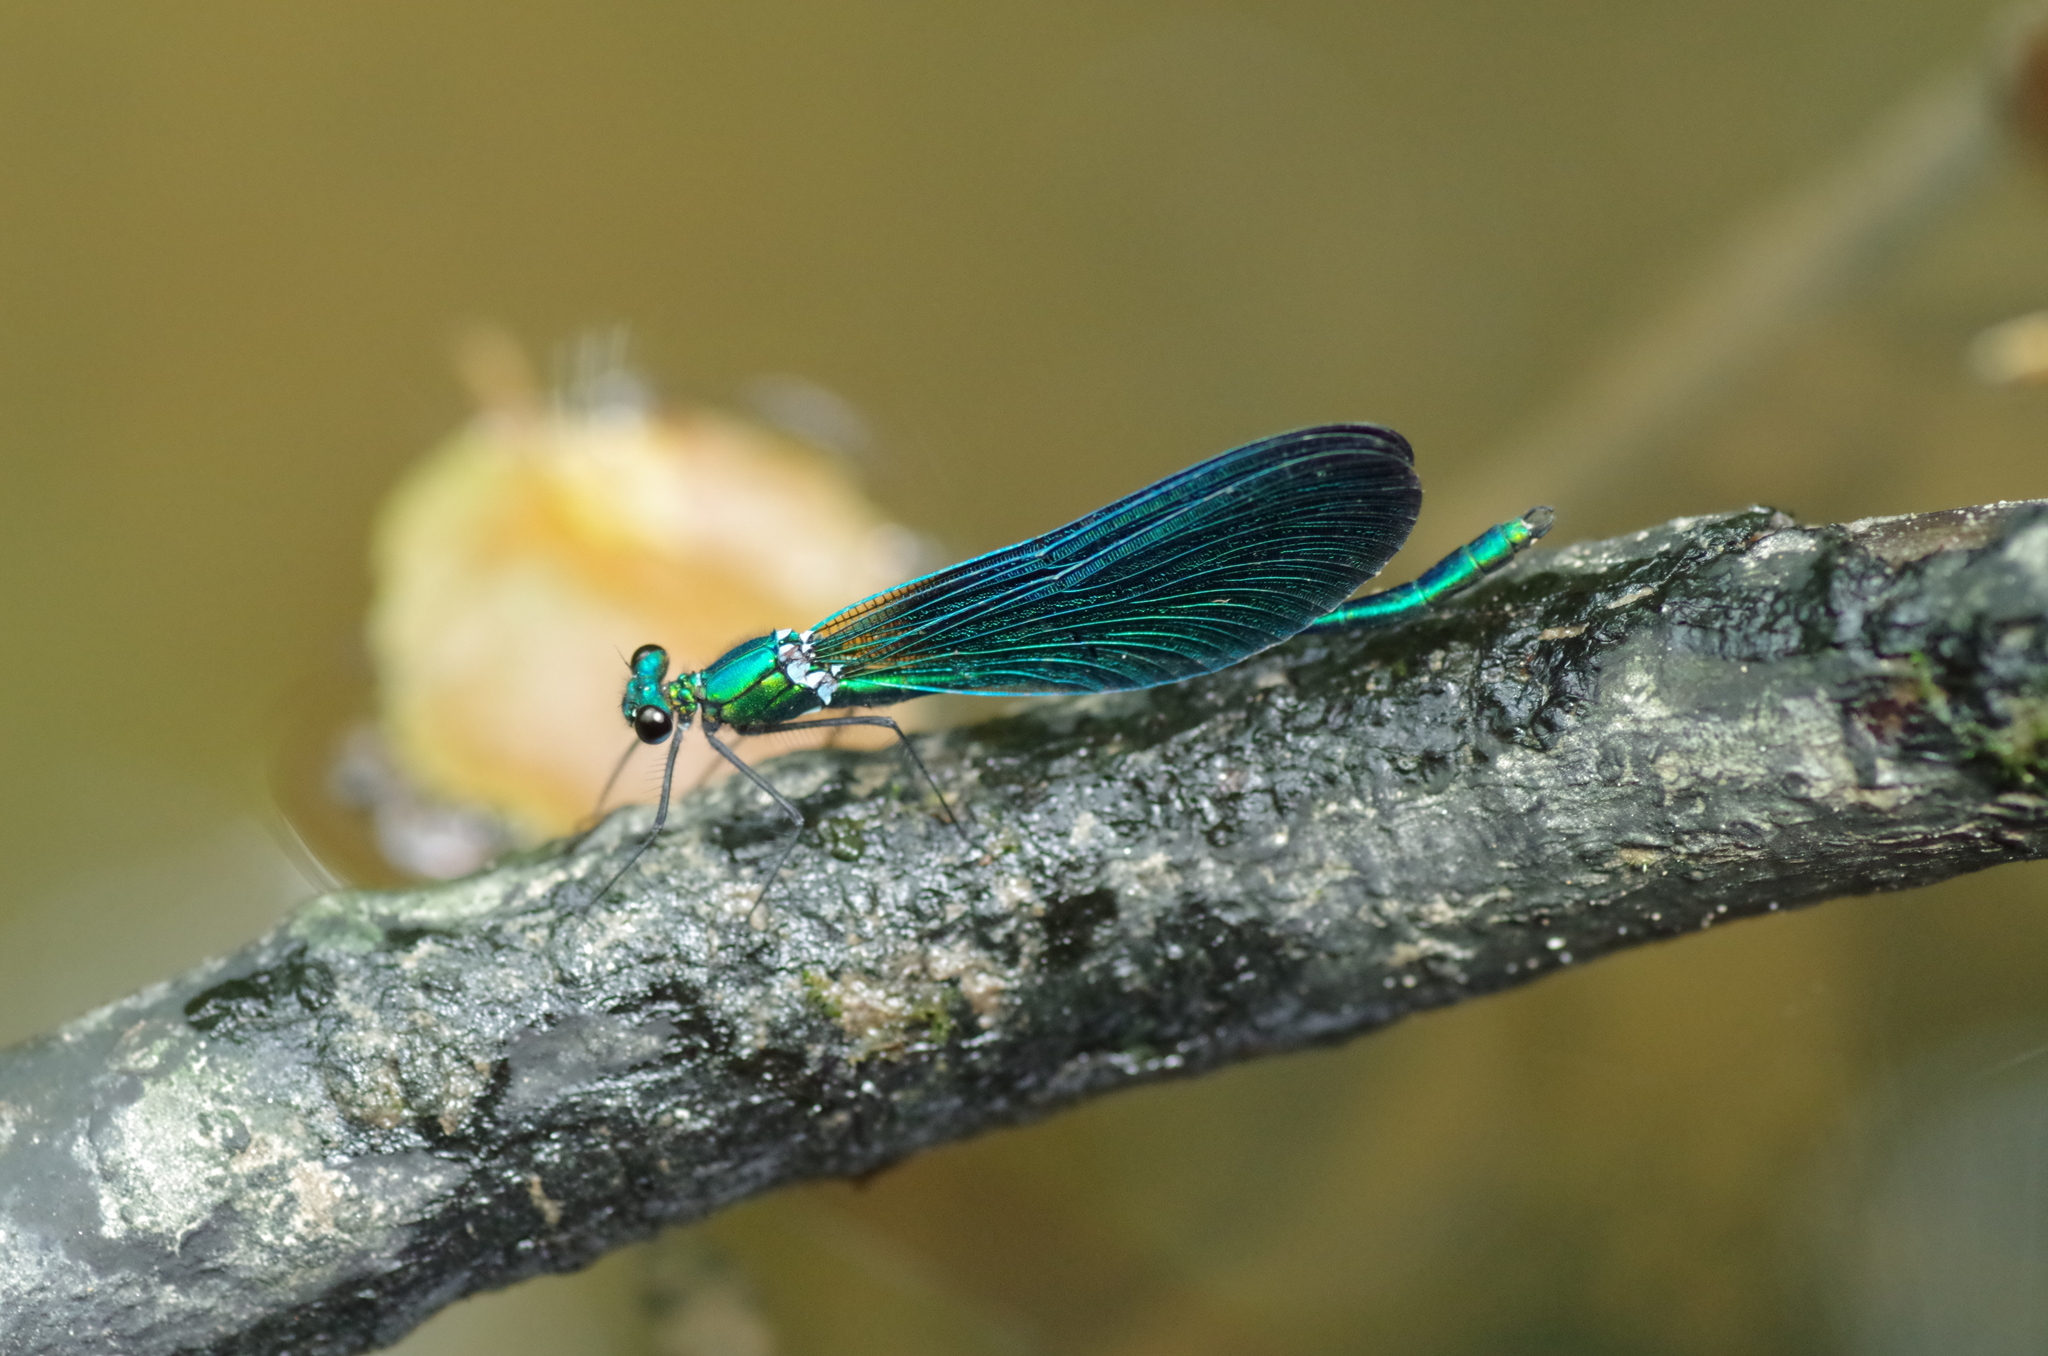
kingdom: Animalia
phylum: Arthropoda
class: Insecta
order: Odonata
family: Calopterygidae
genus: Calopteryx
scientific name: Calopteryx virgo
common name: Beautiful demoiselle
